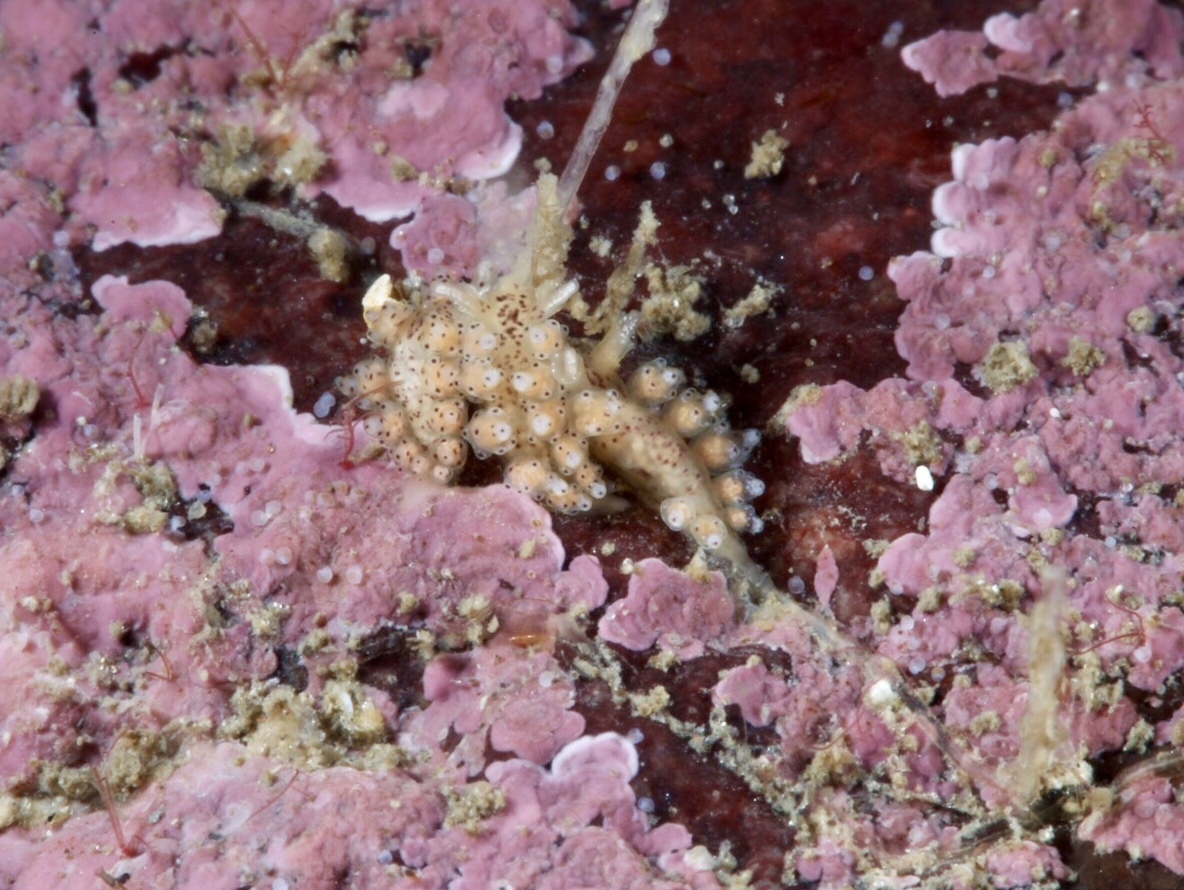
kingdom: Animalia
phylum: Mollusca
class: Gastropoda
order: Nudibranchia
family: Dotidae
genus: Doto
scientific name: Doto dunnei
